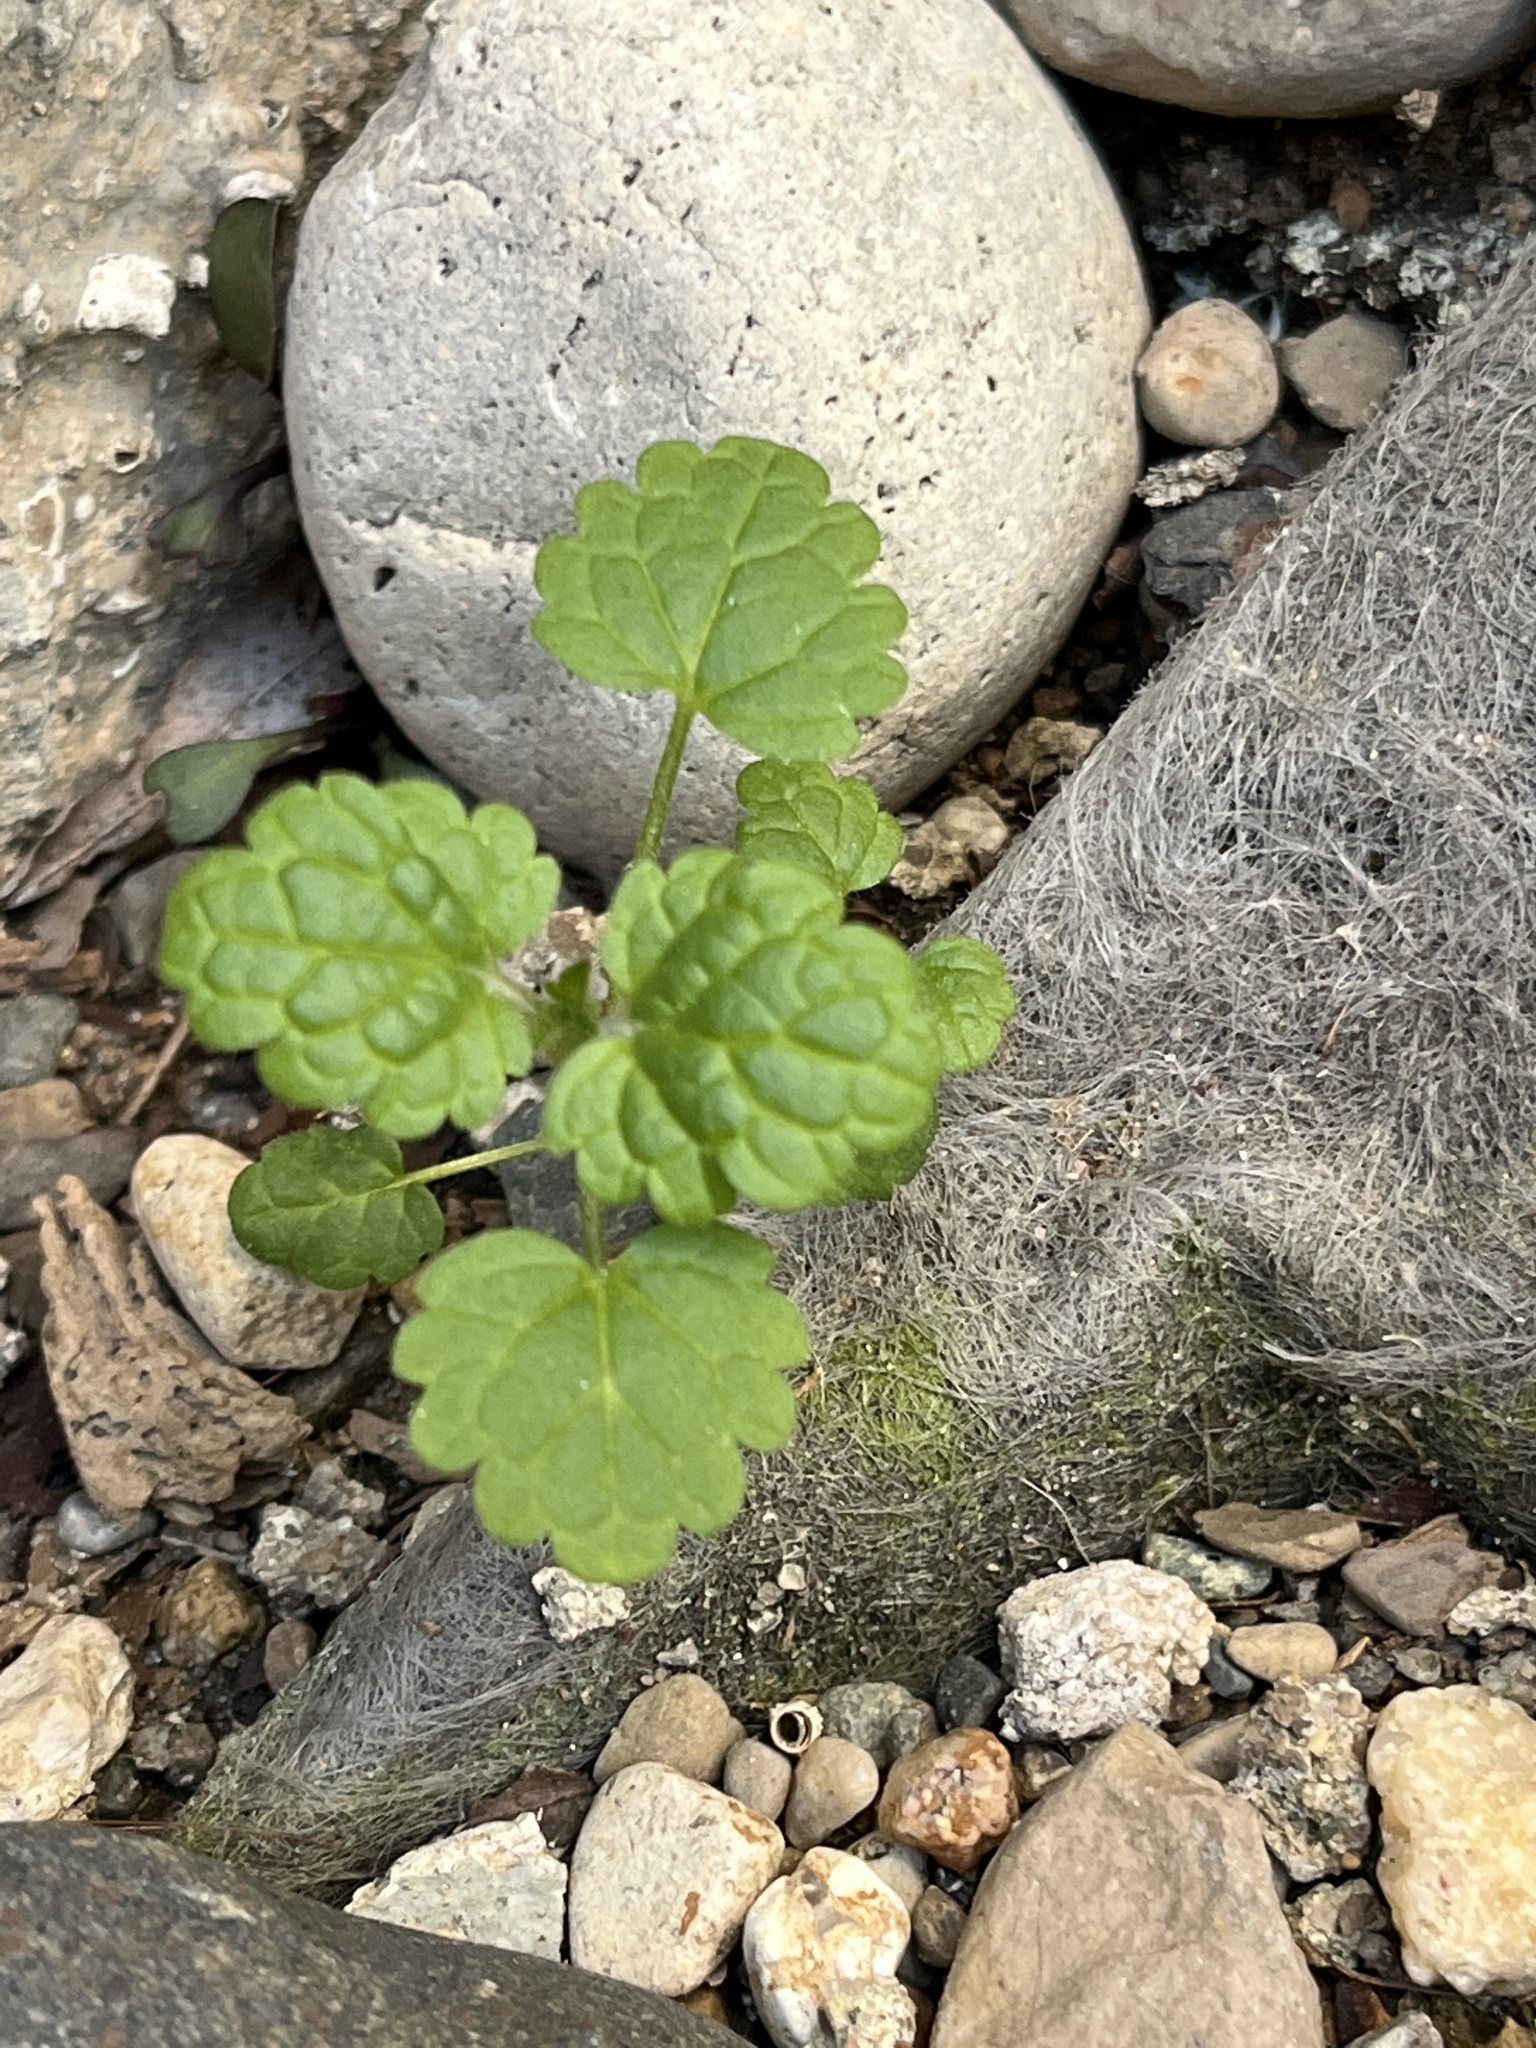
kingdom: Plantae
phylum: Tracheophyta
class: Magnoliopsida
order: Lamiales
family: Lamiaceae
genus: Lamium
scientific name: Lamium amplexicaule
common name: Henbit dead-nettle
